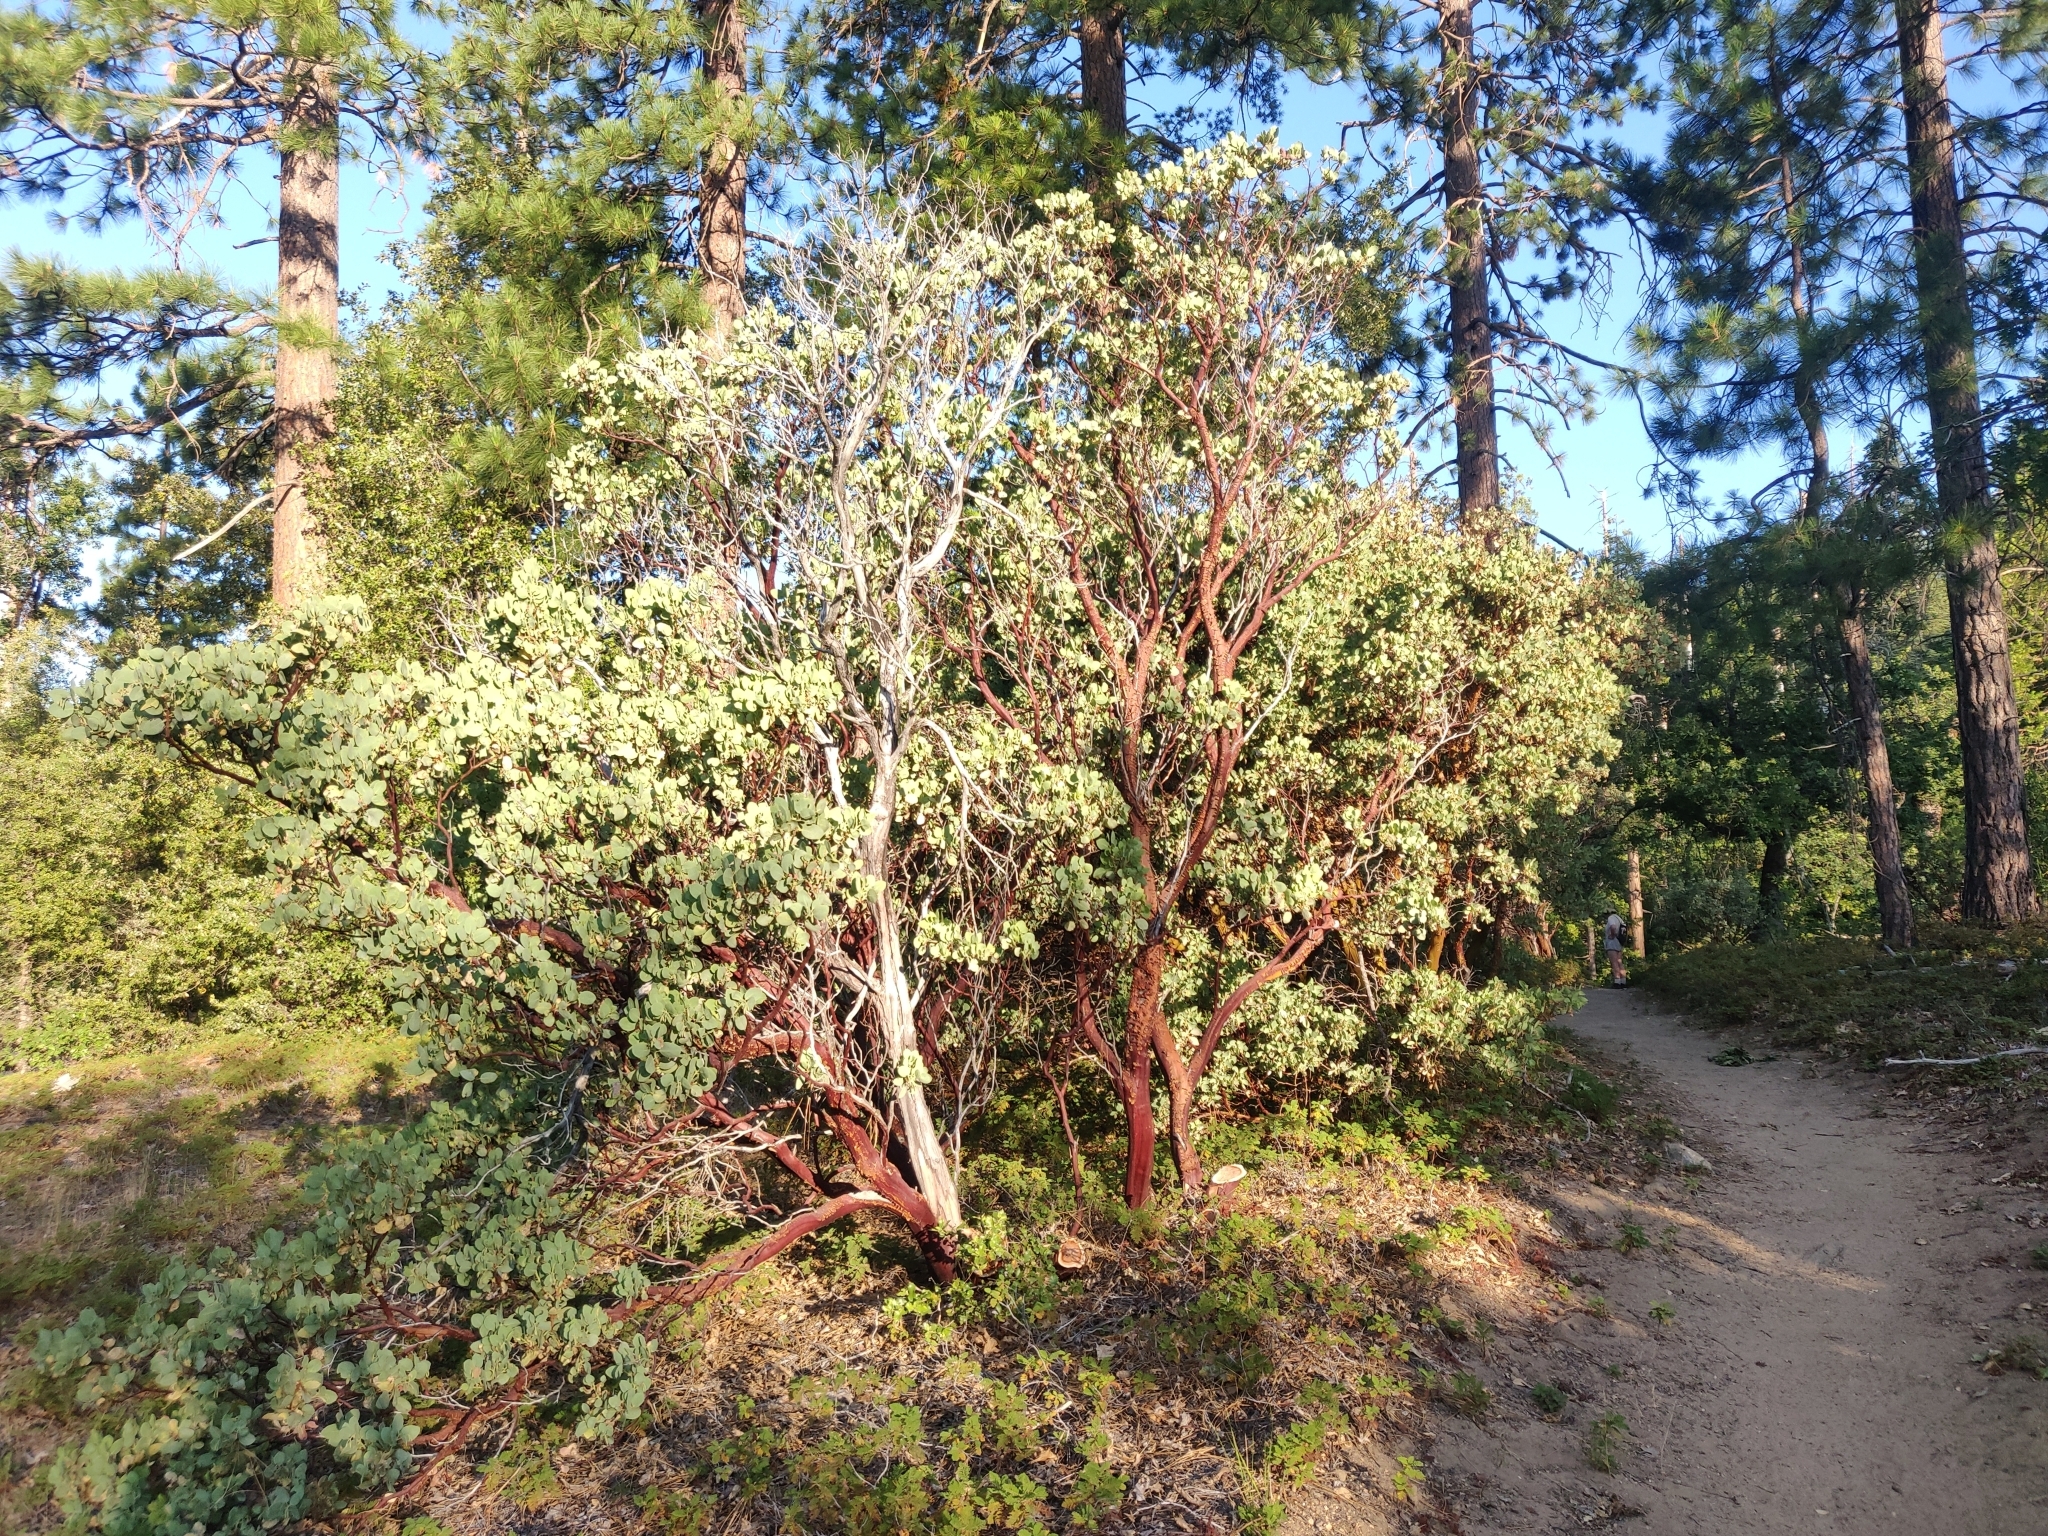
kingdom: Plantae
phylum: Tracheophyta
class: Magnoliopsida
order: Ericales
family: Ericaceae
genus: Arctostaphylos
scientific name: Arctostaphylos viscida
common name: White-leaf manzanita
